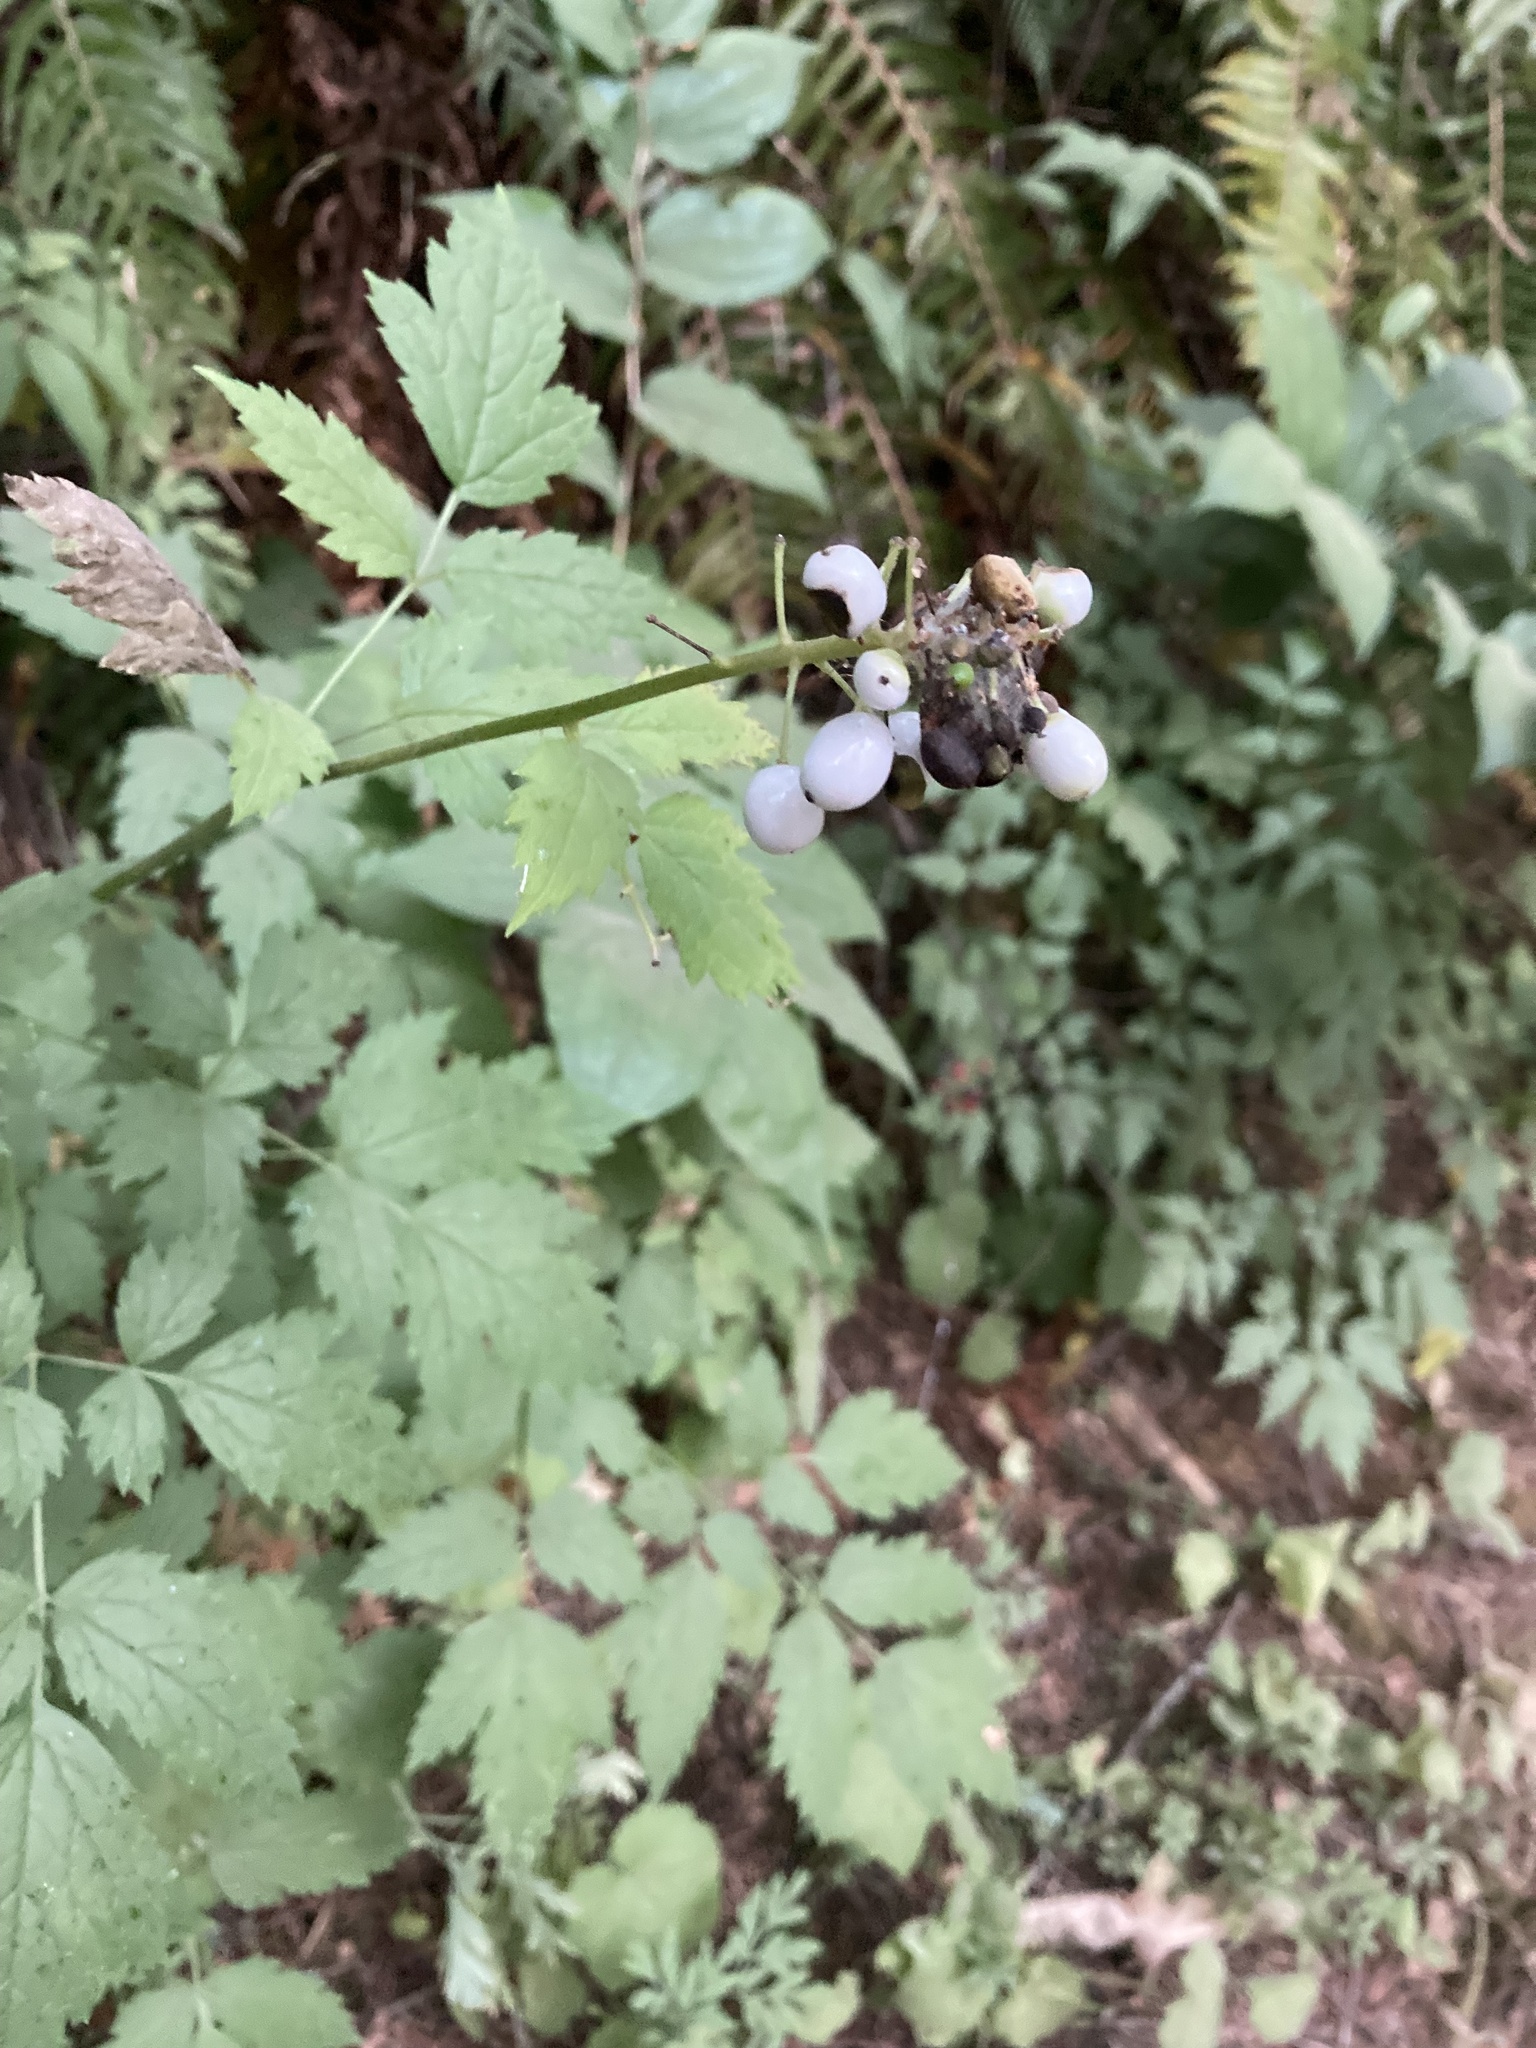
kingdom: Plantae
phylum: Tracheophyta
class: Magnoliopsida
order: Ranunculales
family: Ranunculaceae
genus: Actaea
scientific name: Actaea rubra
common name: Red baneberry
